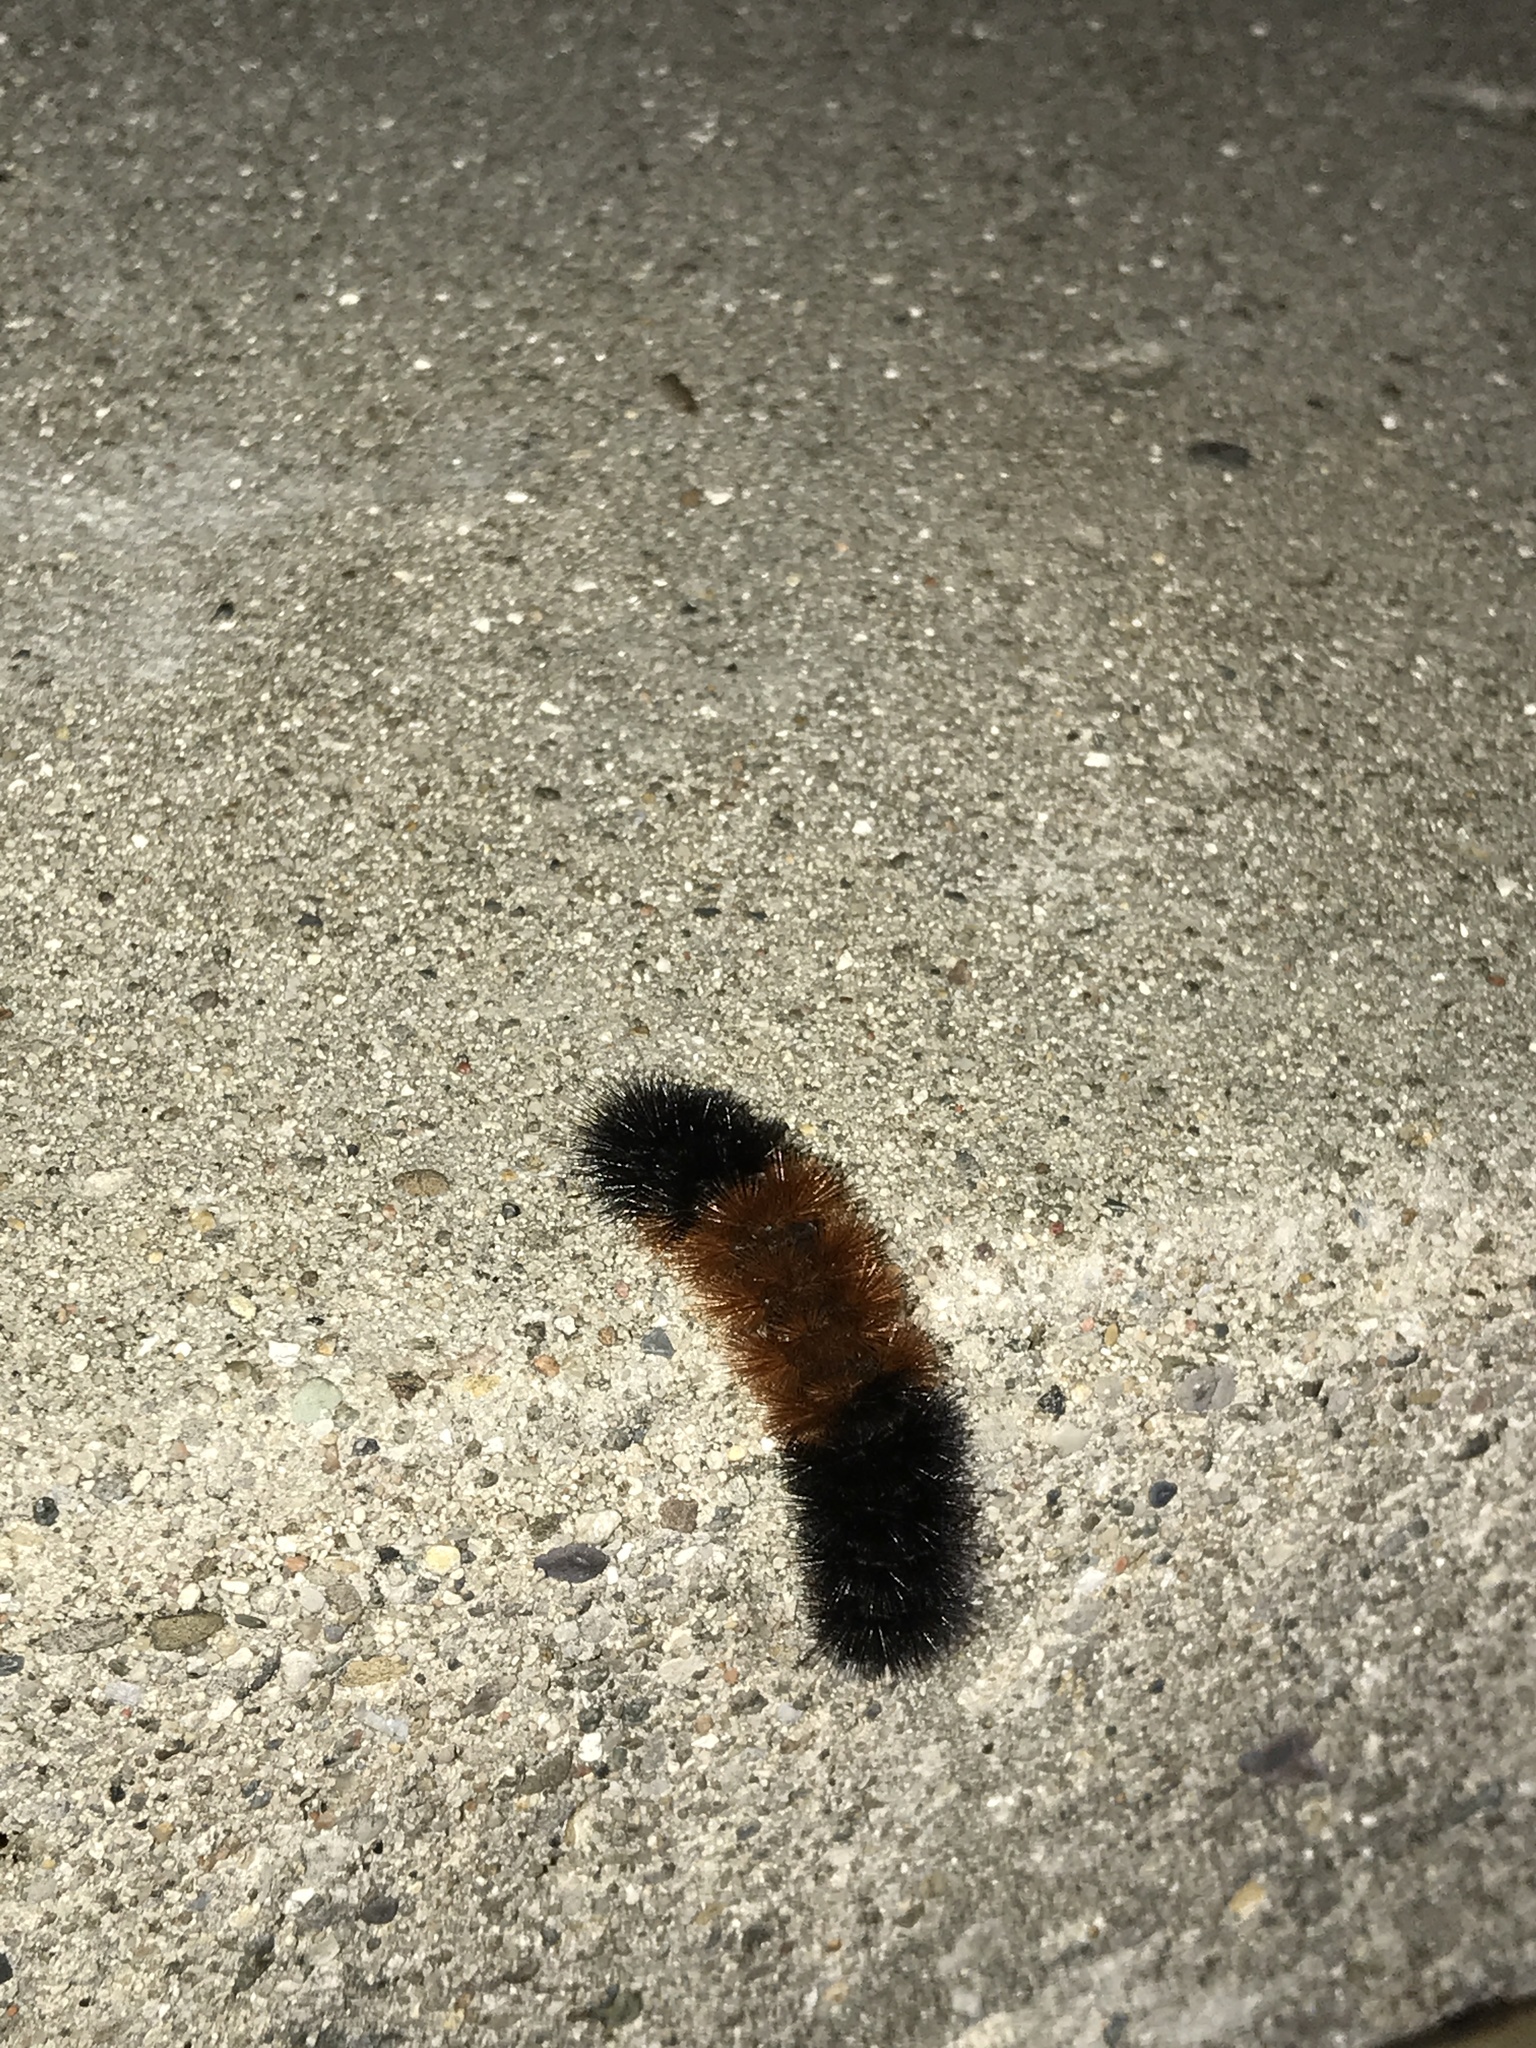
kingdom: Animalia
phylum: Arthropoda
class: Insecta
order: Lepidoptera
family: Erebidae
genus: Pyrrharctia
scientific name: Pyrrharctia isabella
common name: Isabella tiger moth
